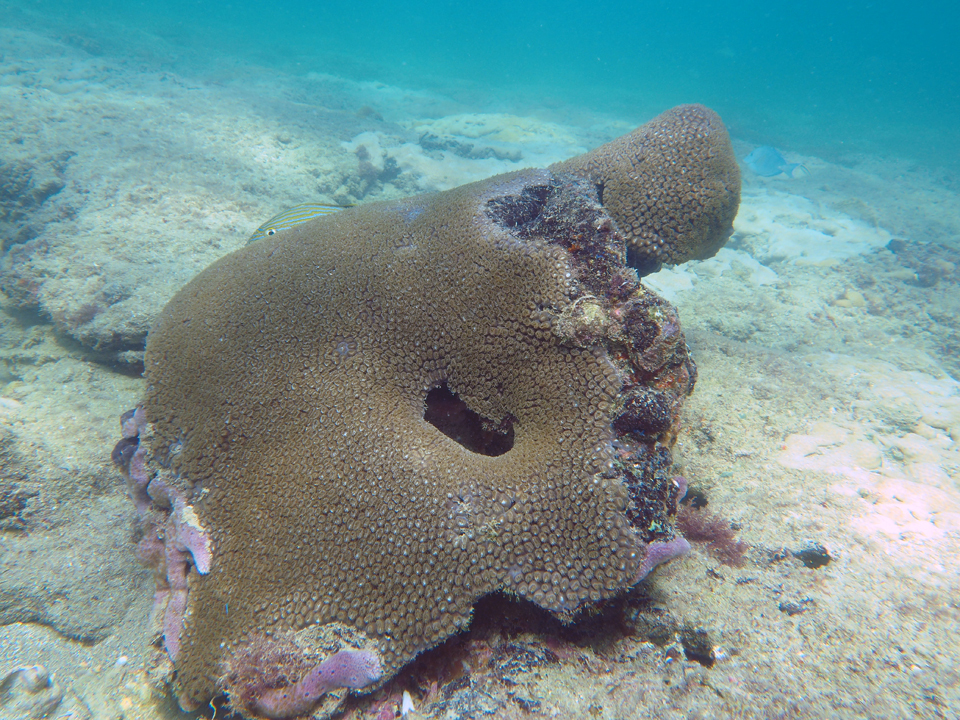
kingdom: Animalia
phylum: Cnidaria
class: Anthozoa
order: Scleractinia
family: Montastraeidae
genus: Montastraea
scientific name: Montastraea cavernosa
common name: Great star coral
